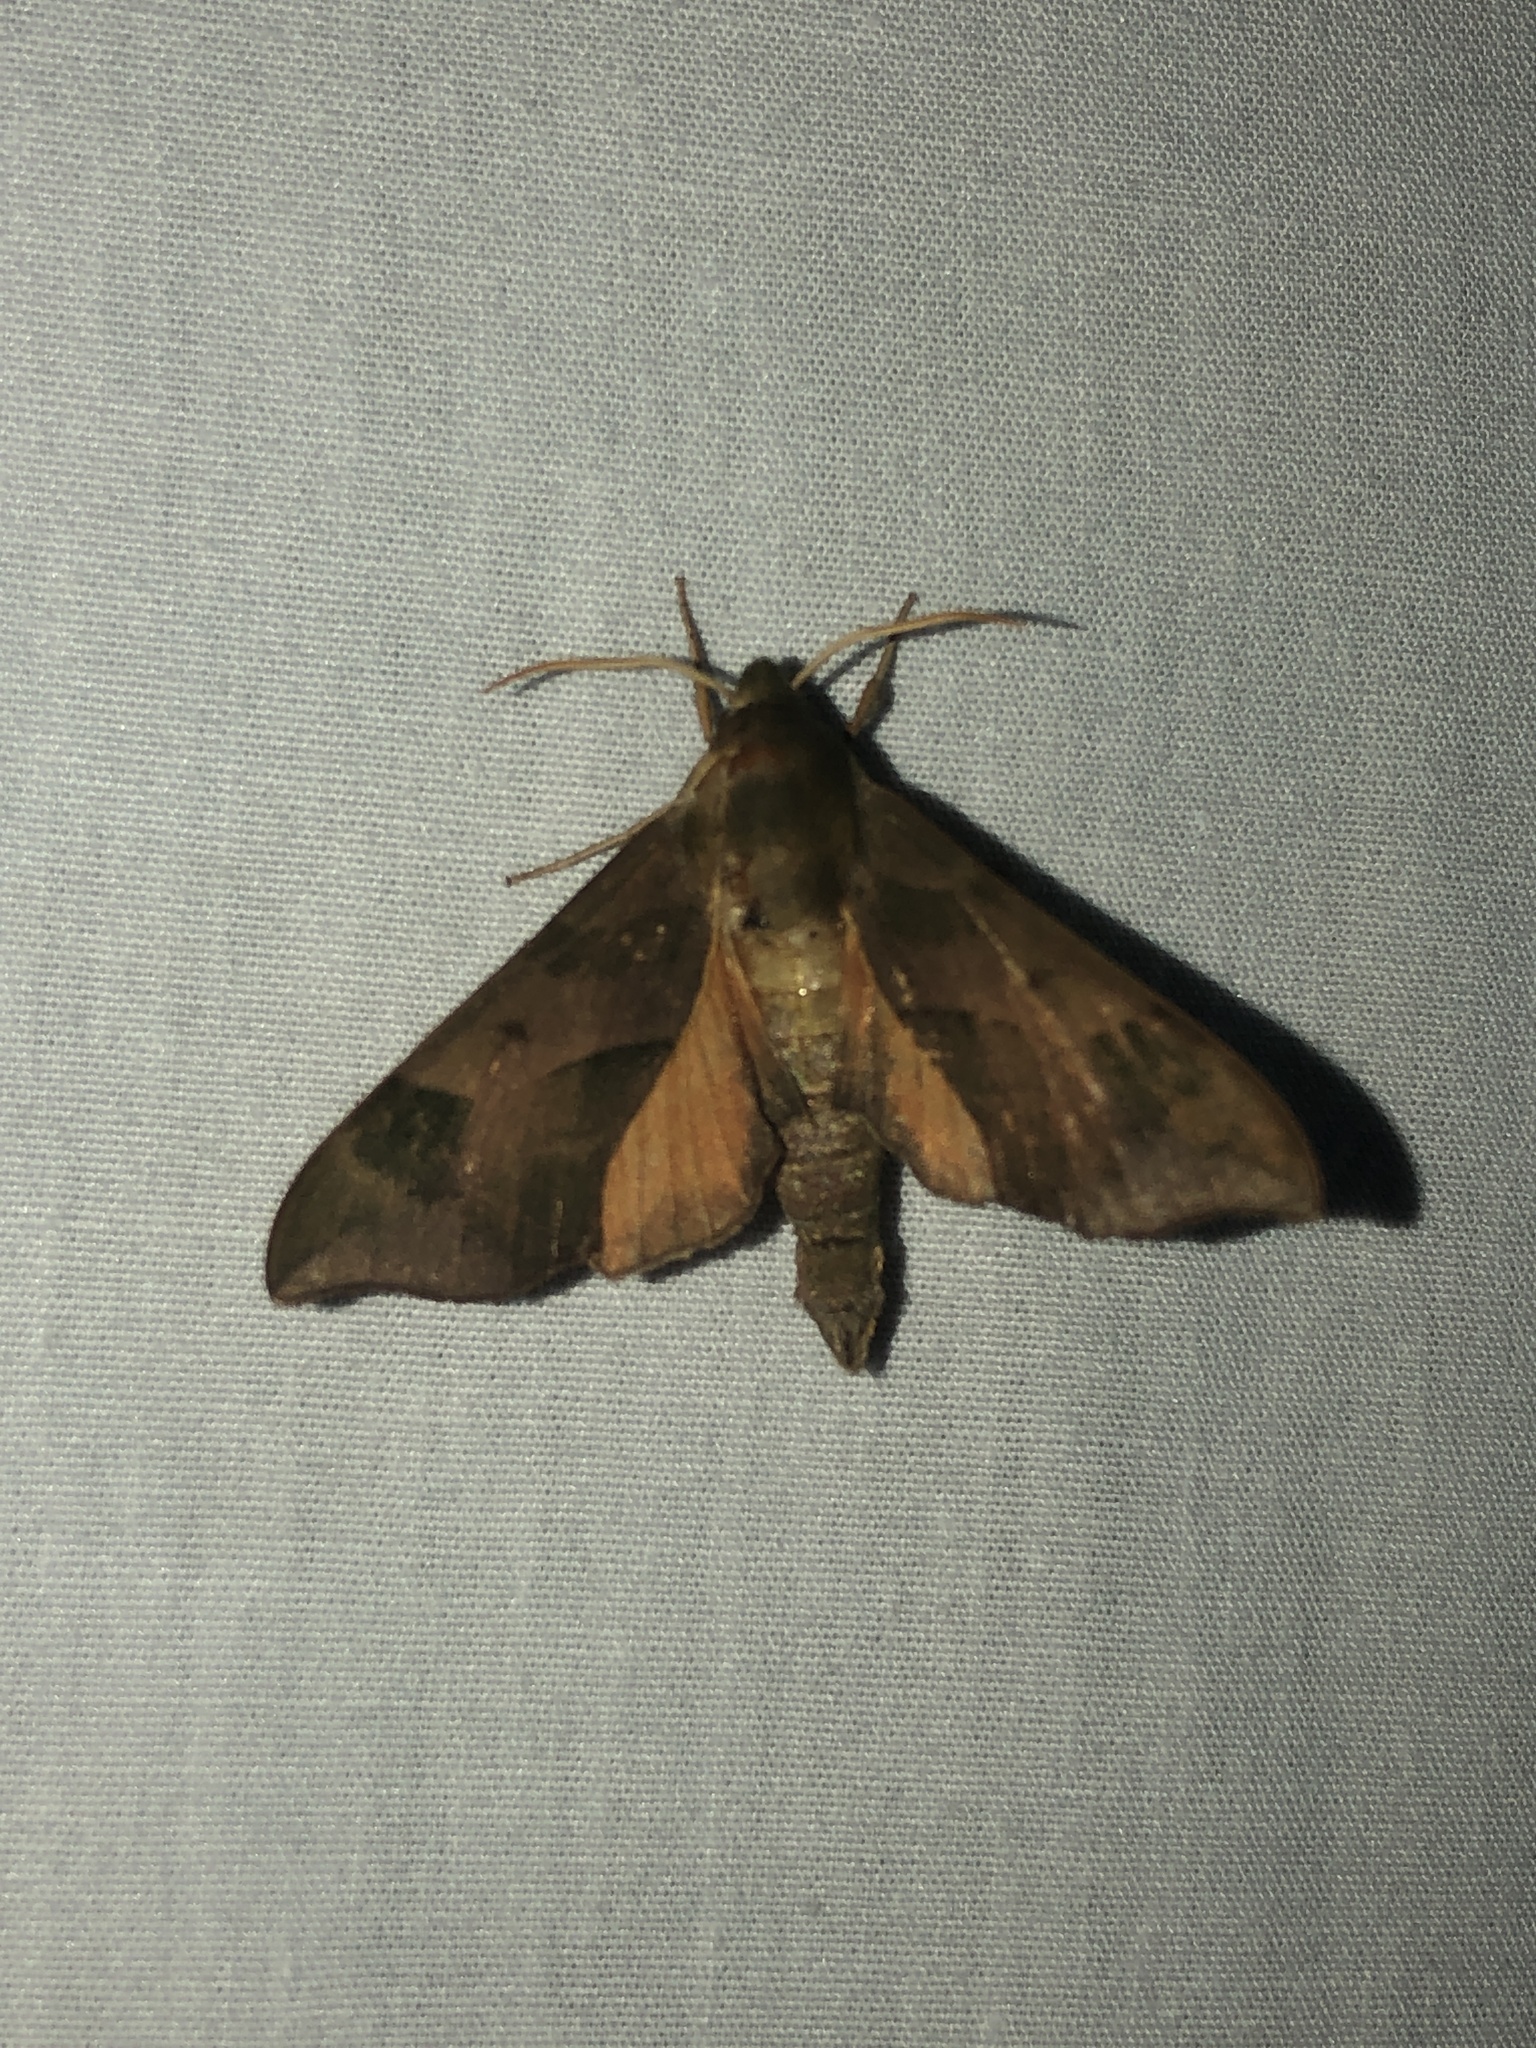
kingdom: Animalia
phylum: Arthropoda
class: Insecta
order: Lepidoptera
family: Sphingidae
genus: Darapsa
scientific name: Darapsa myron
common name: Hog sphinx
